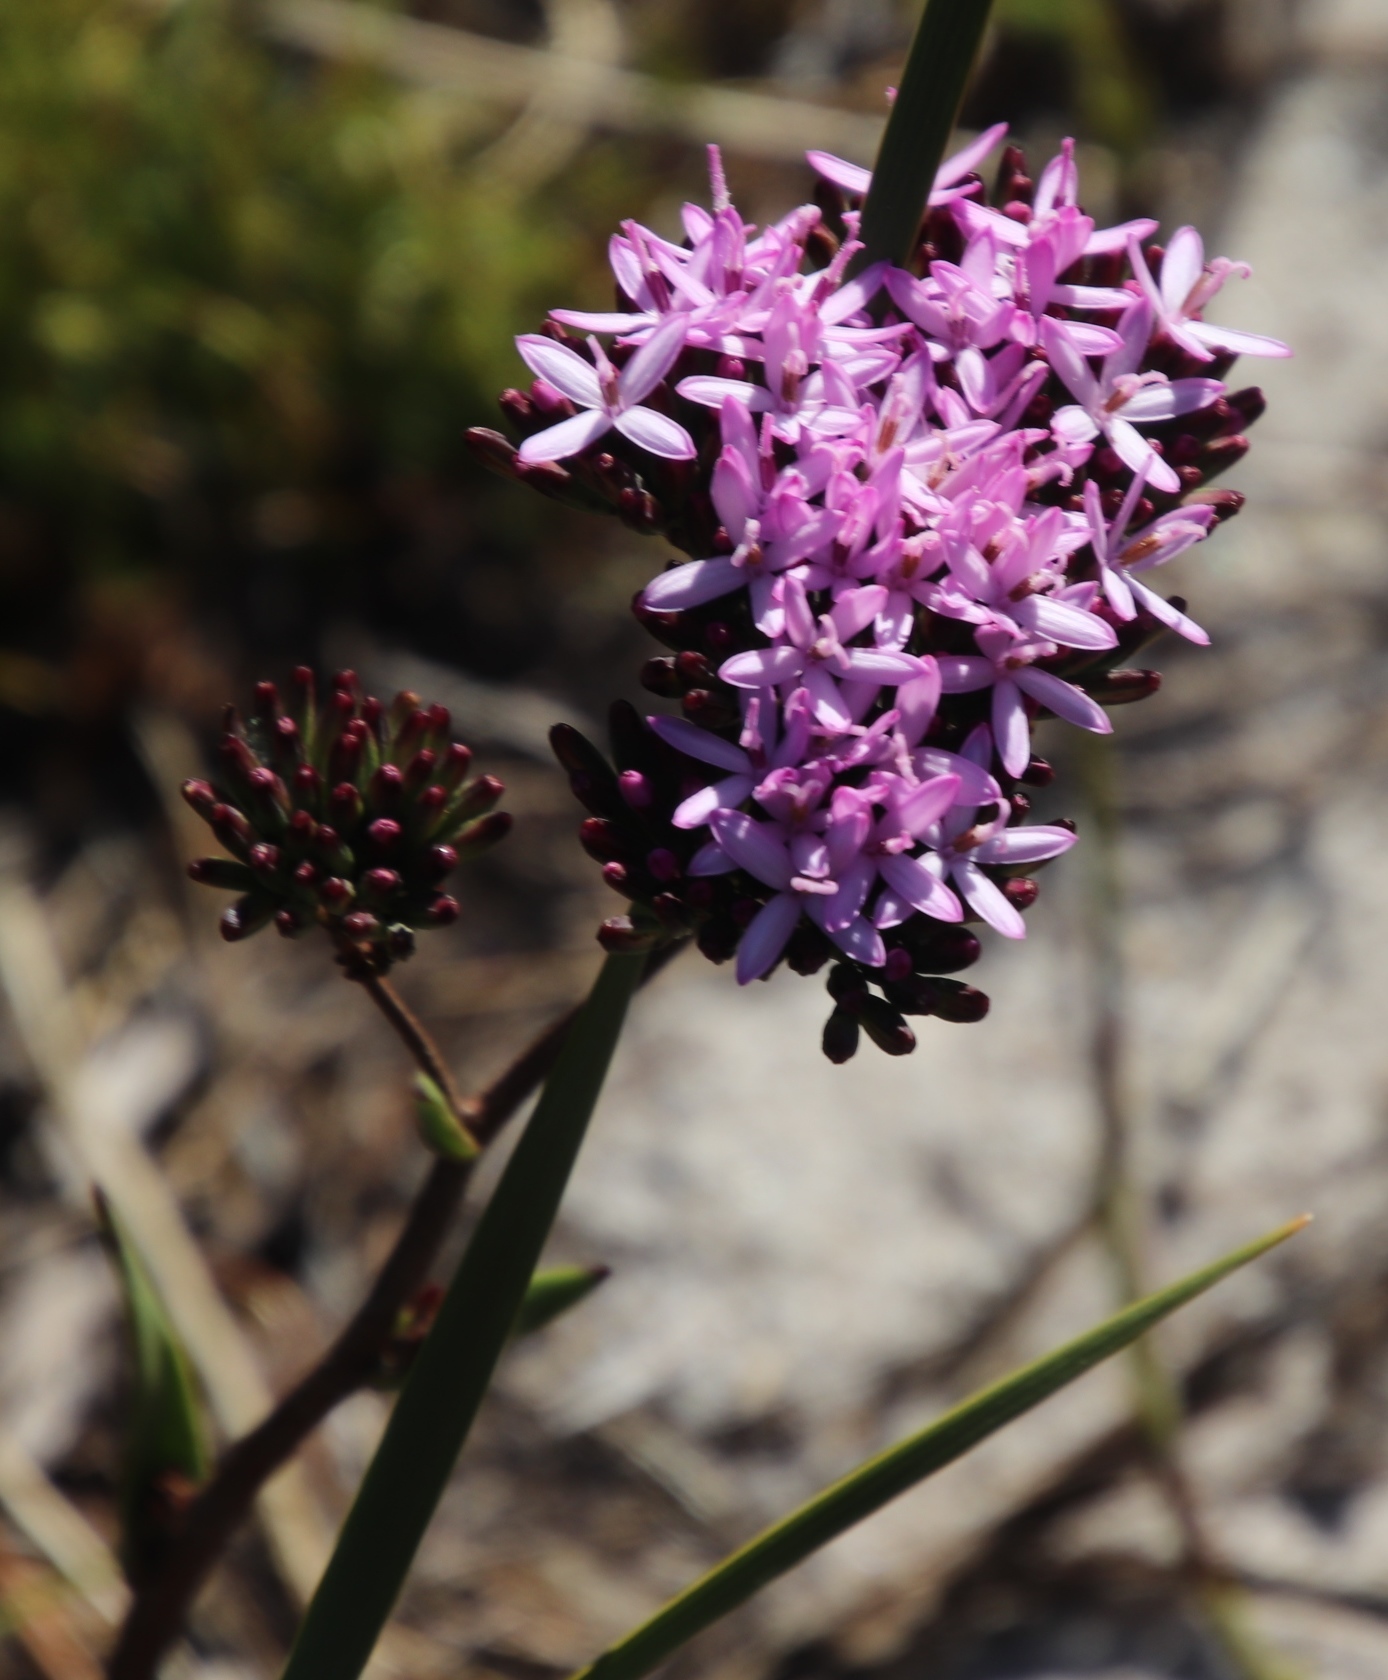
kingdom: Plantae
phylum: Tracheophyta
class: Magnoliopsida
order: Asterales
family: Asteraceae
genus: Corymbium
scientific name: Corymbium glabrum
